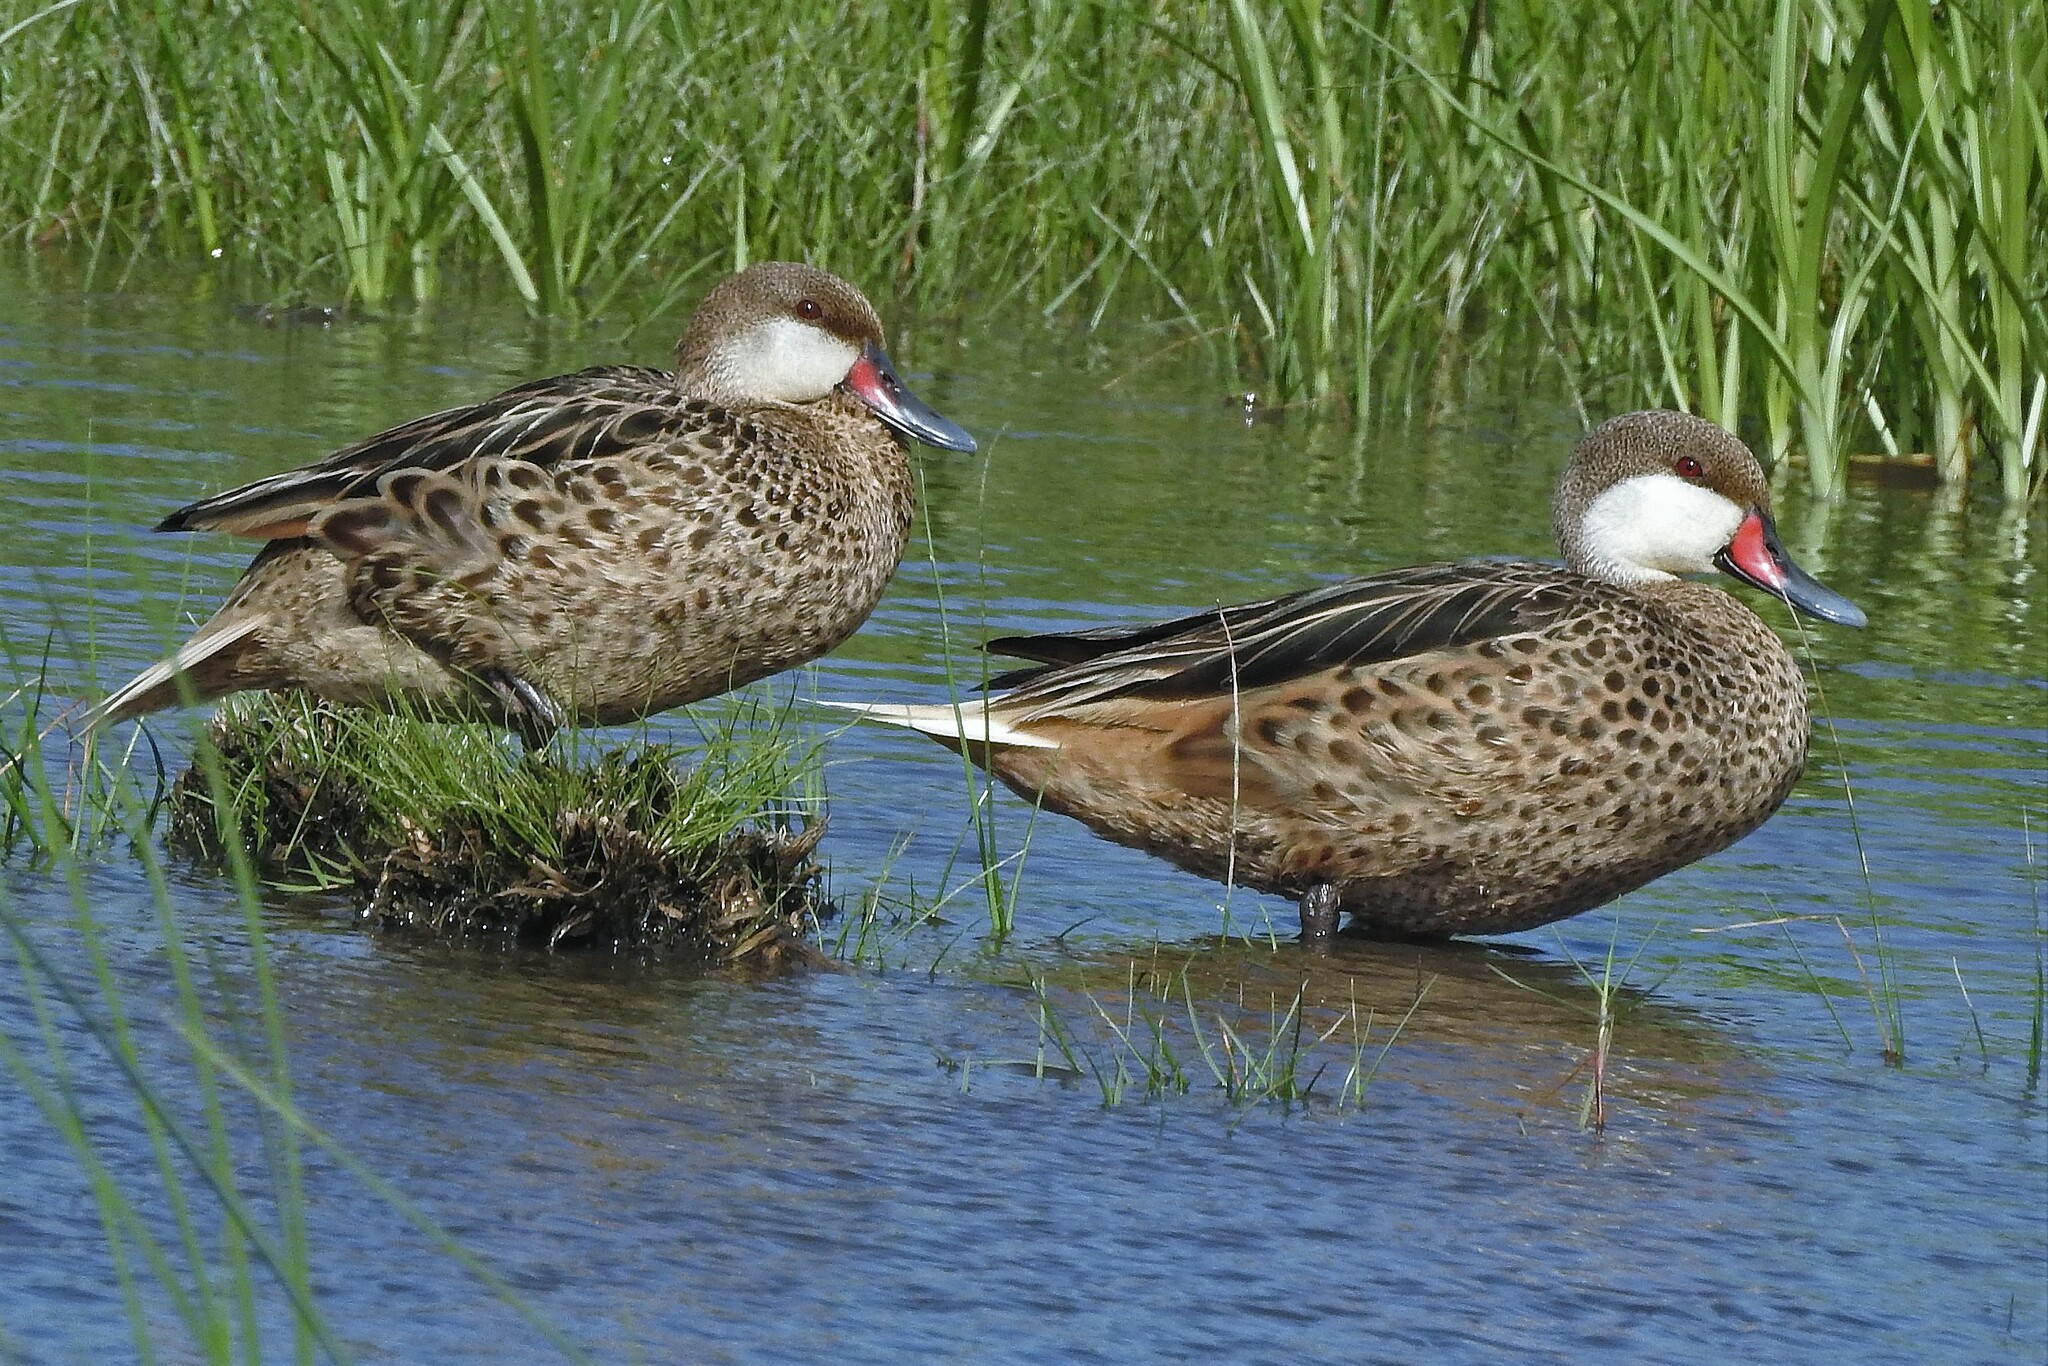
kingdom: Animalia
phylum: Chordata
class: Aves
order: Anseriformes
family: Anatidae
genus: Anas
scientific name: Anas bahamensis
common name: White-cheeked pintail
